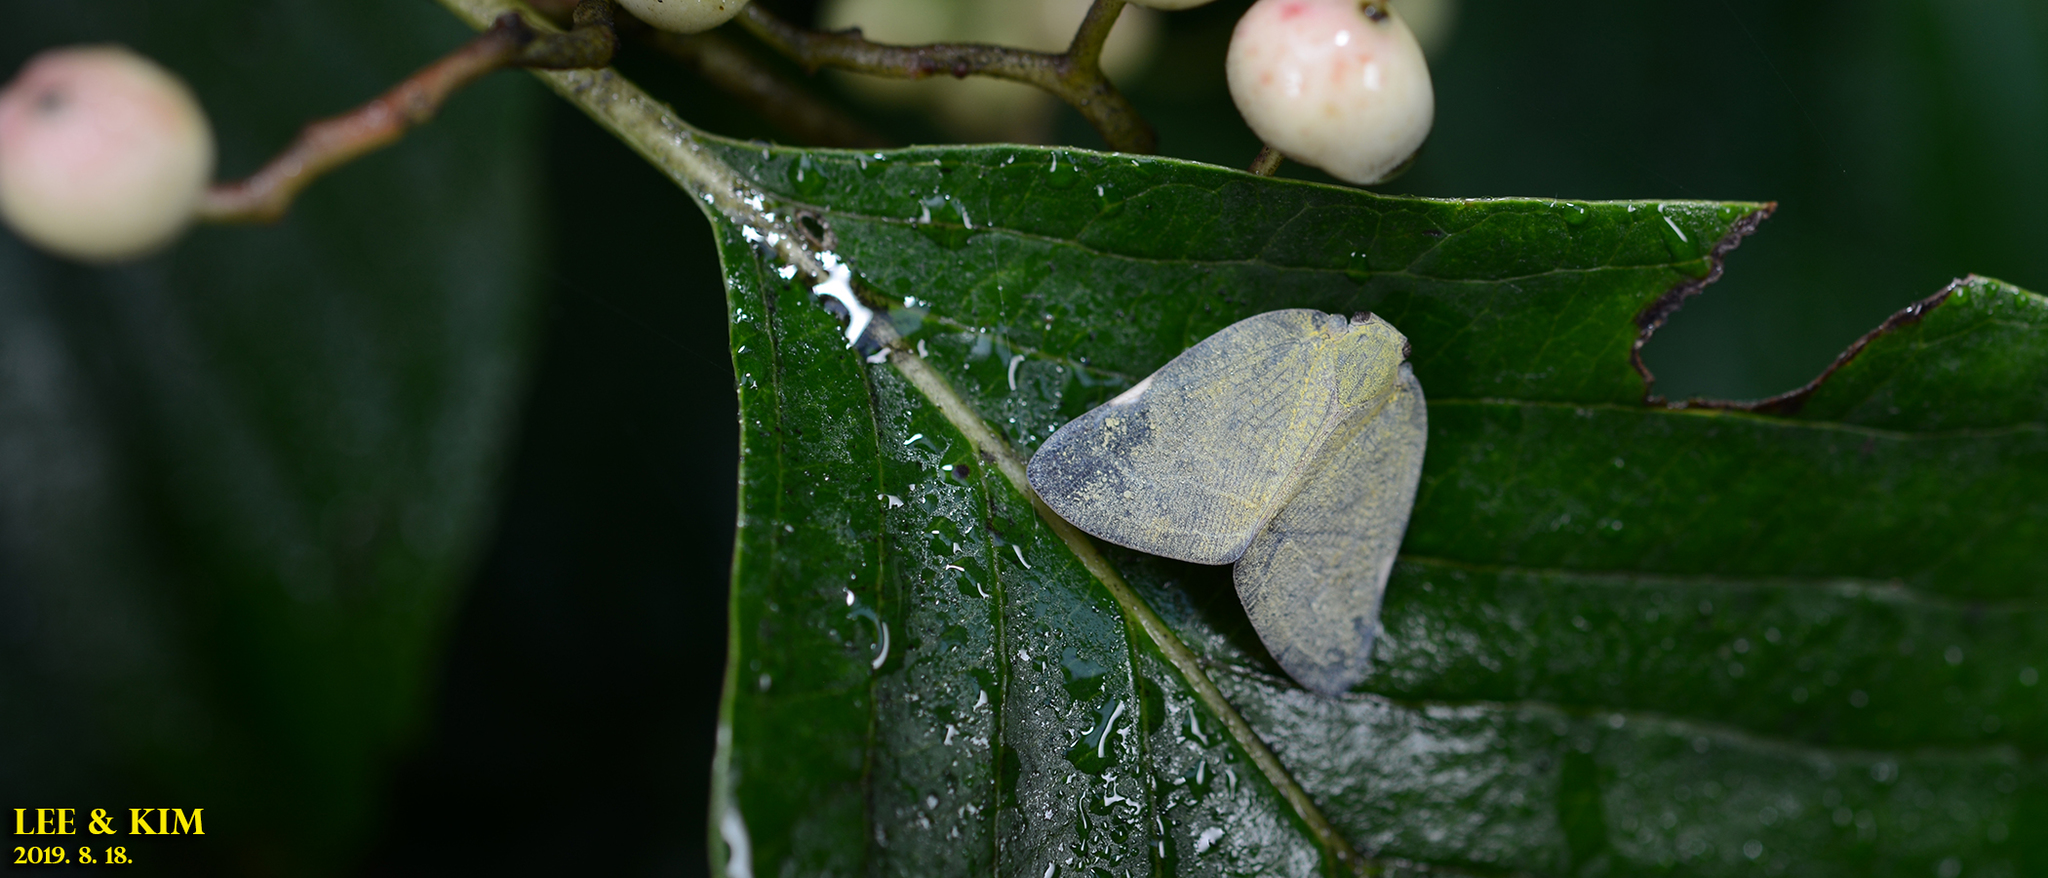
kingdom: Animalia
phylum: Arthropoda
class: Insecta
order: Hemiptera
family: Ricaniidae
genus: Ricanula
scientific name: Ricanula sublimata
